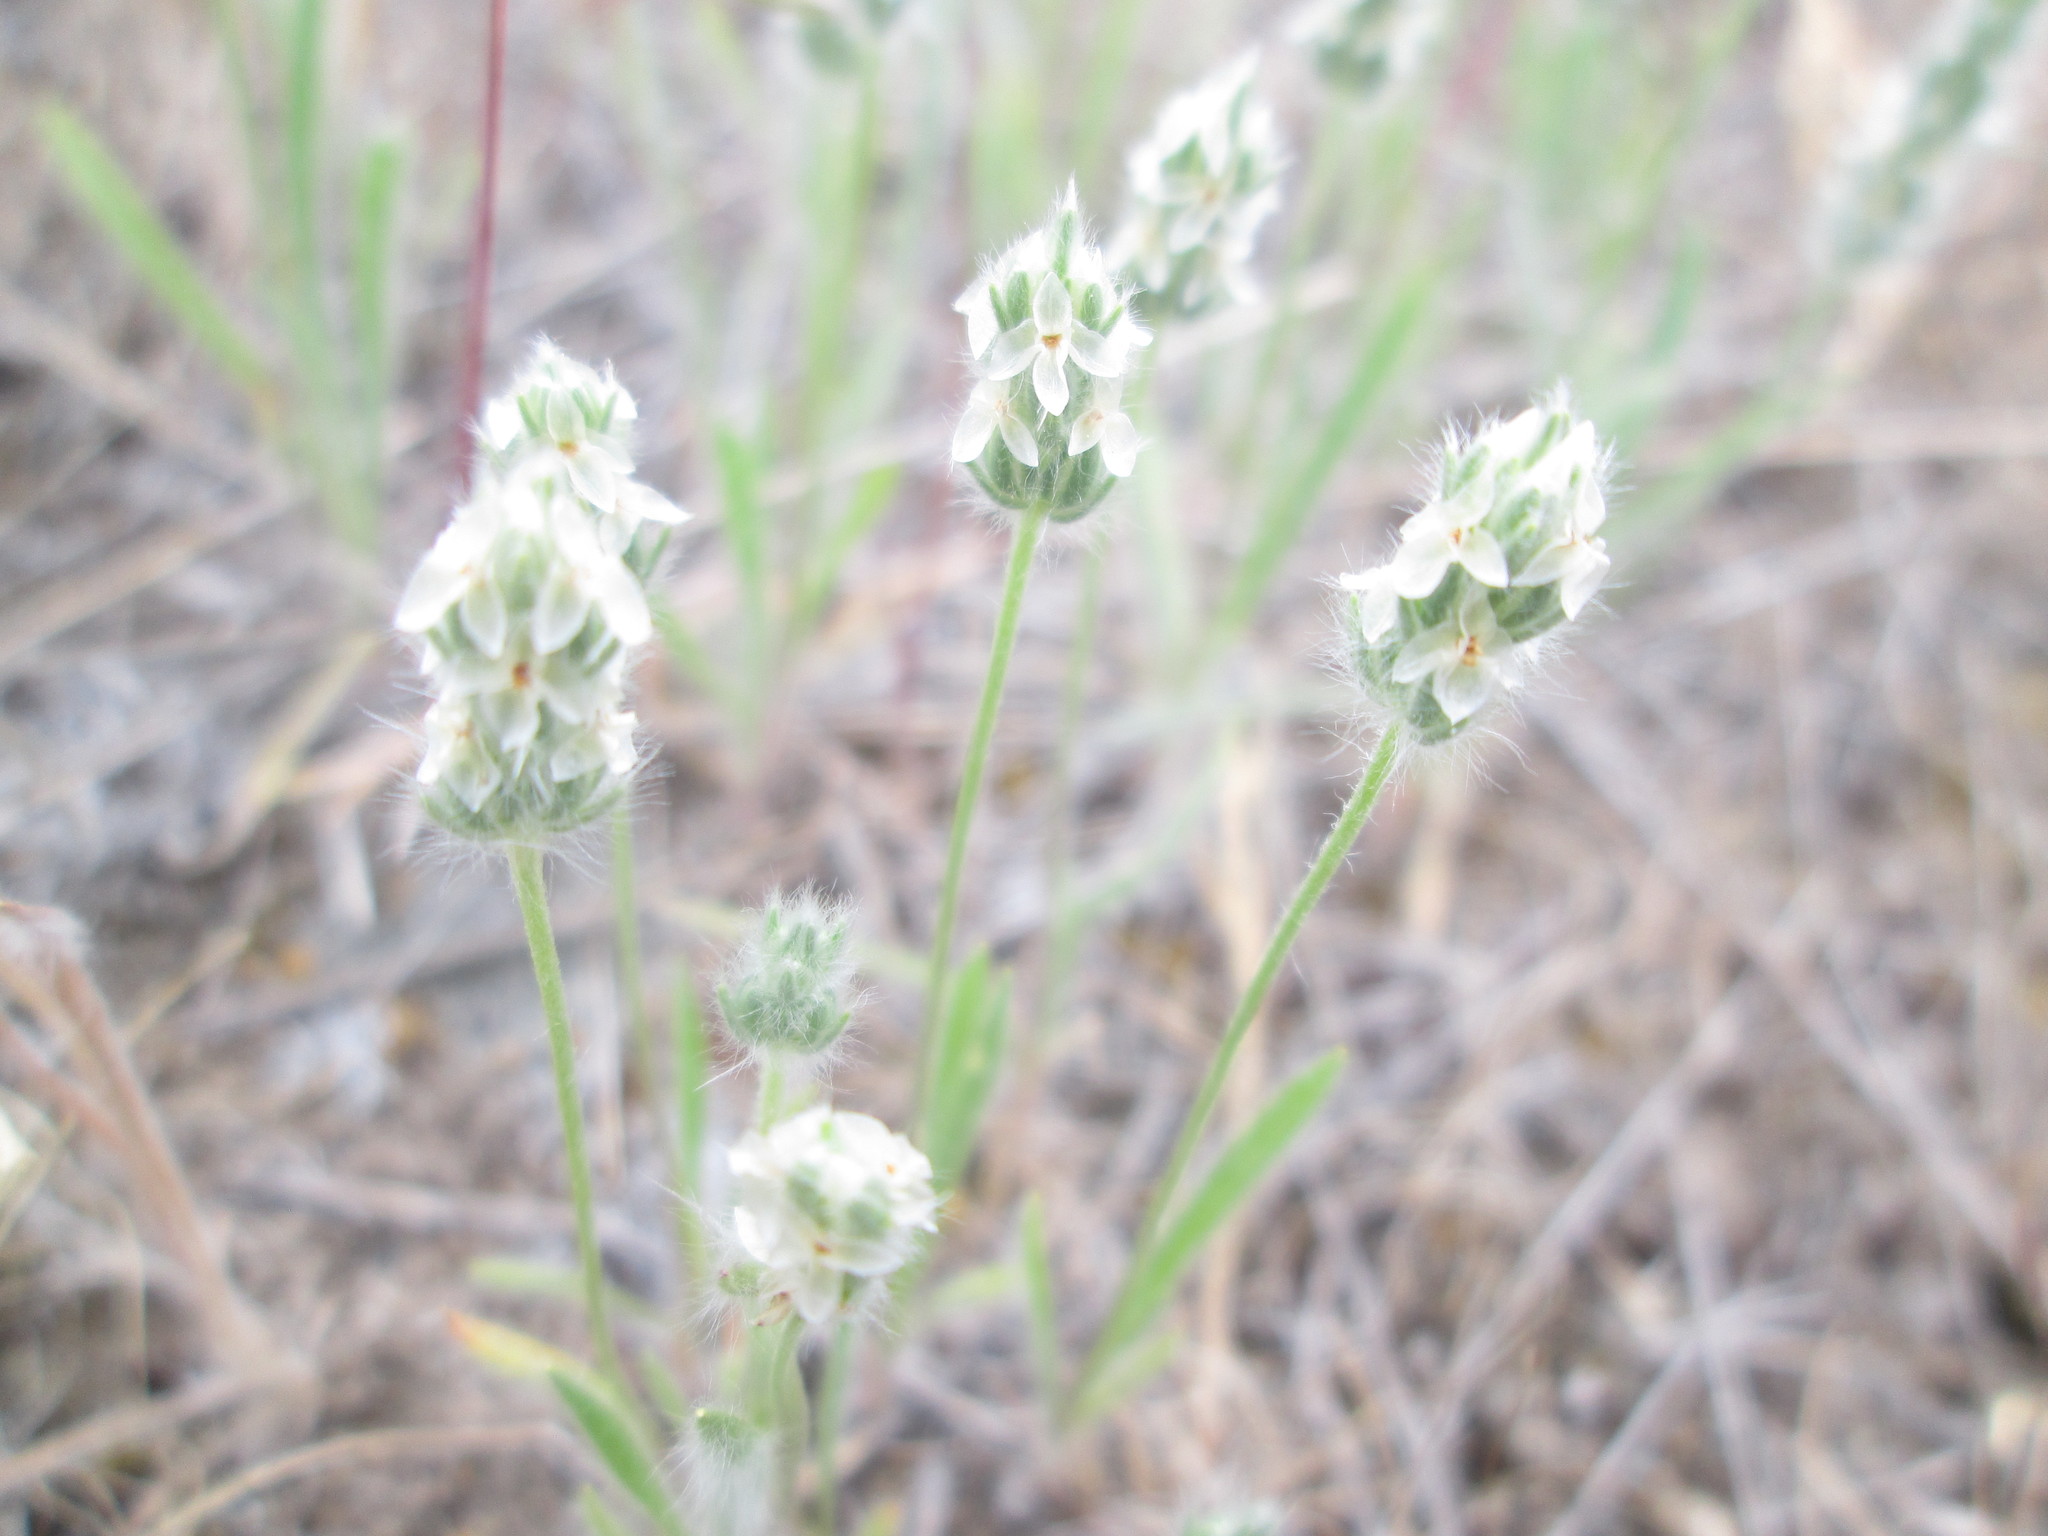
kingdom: Plantae
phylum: Tracheophyta
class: Magnoliopsida
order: Lamiales
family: Plantaginaceae
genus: Plantago
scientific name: Plantago patagonica
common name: Patagonia indian-wheat
